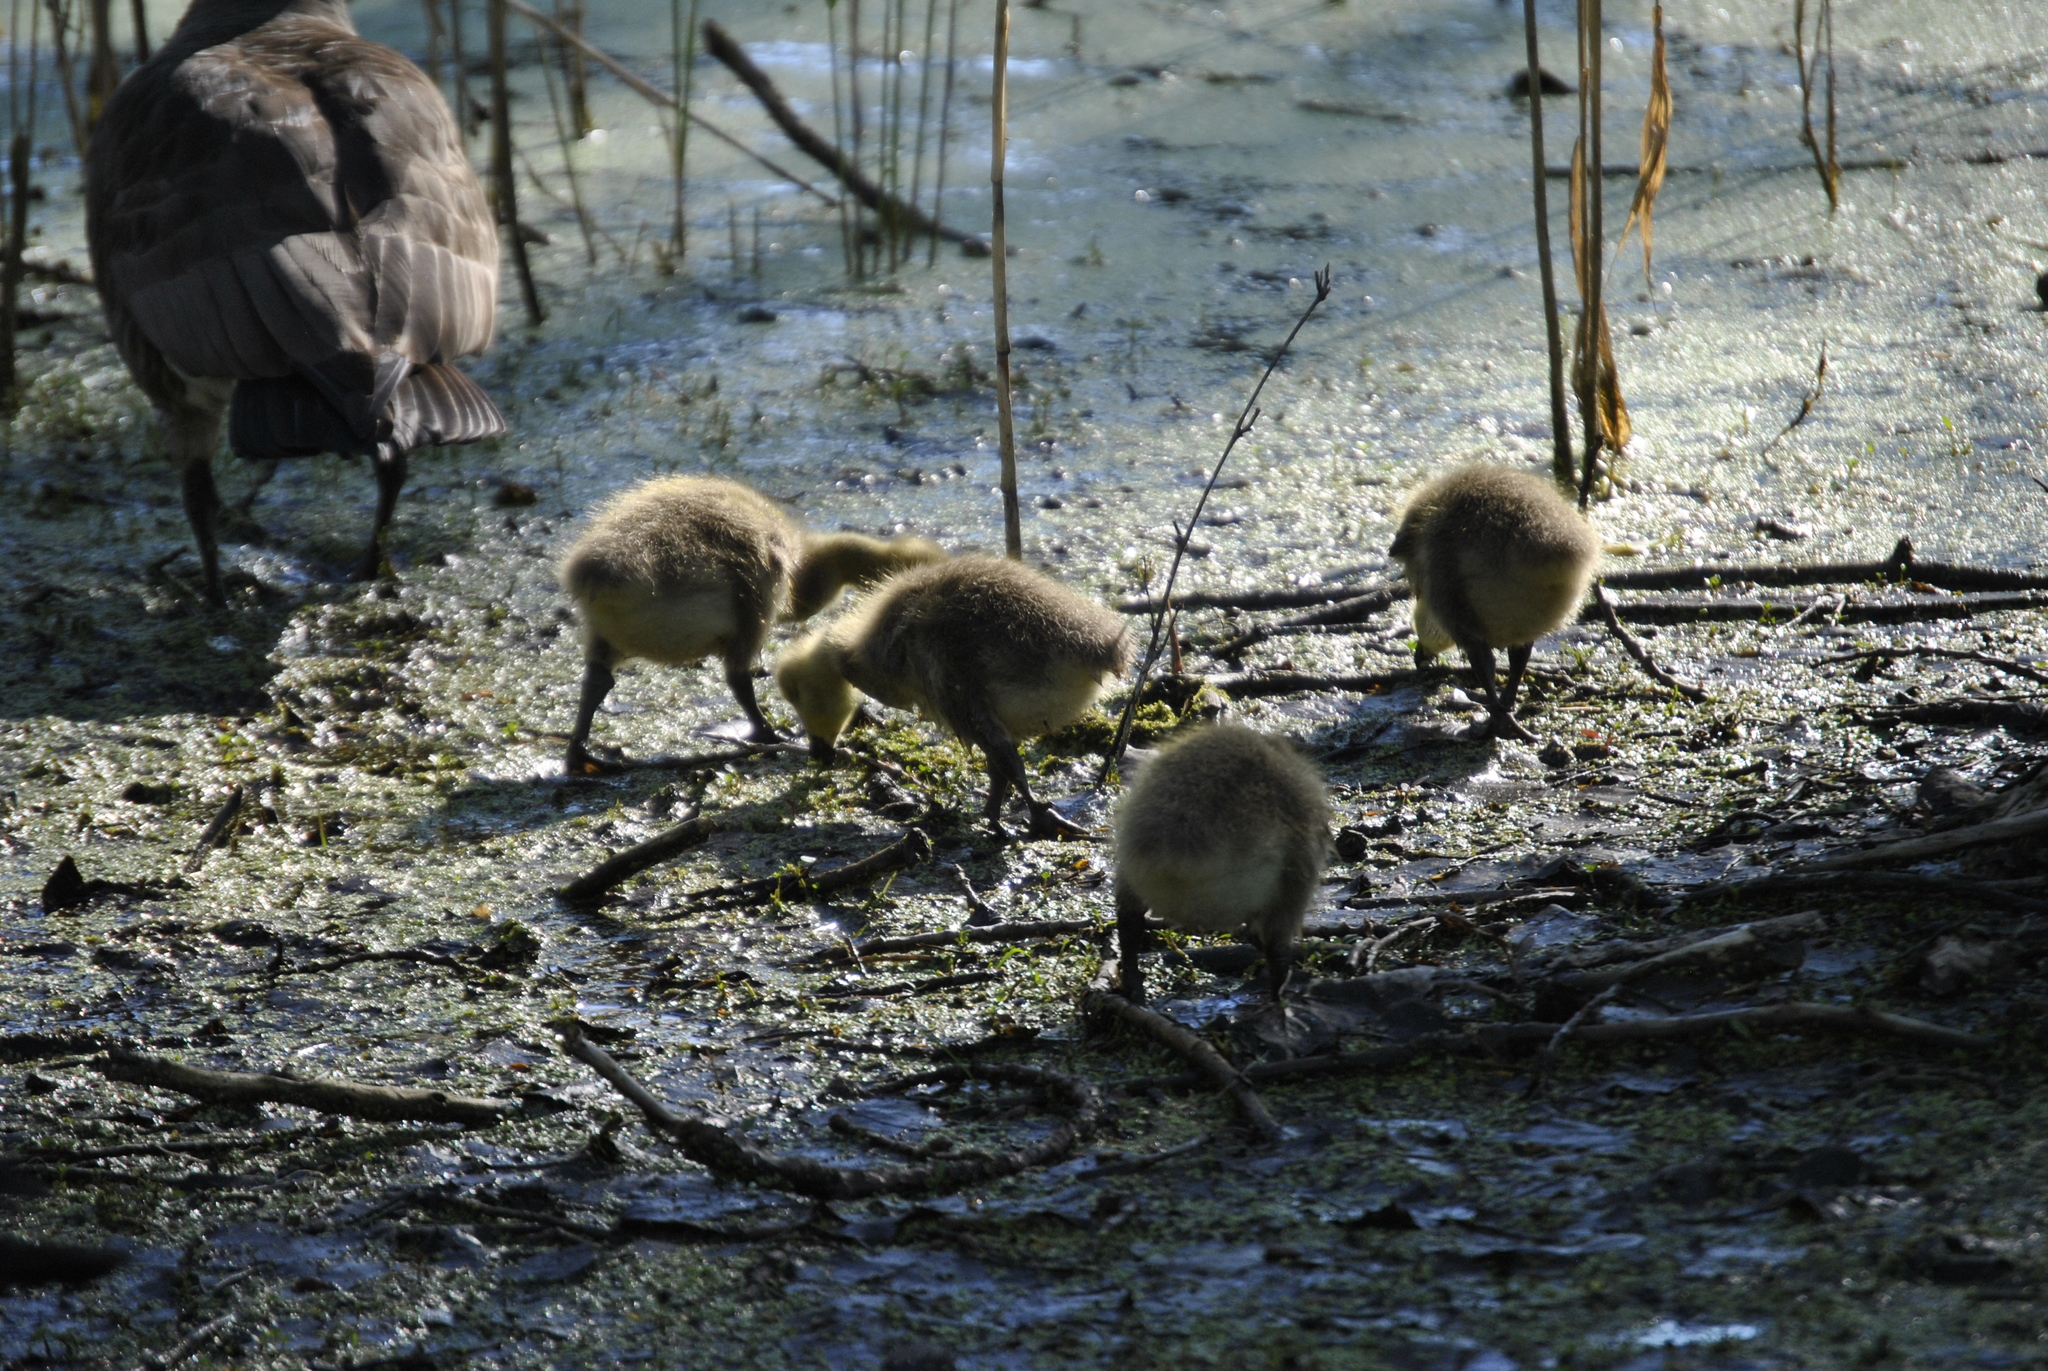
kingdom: Animalia
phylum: Chordata
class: Aves
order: Anseriformes
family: Anatidae
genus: Branta
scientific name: Branta canadensis
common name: Canada goose
